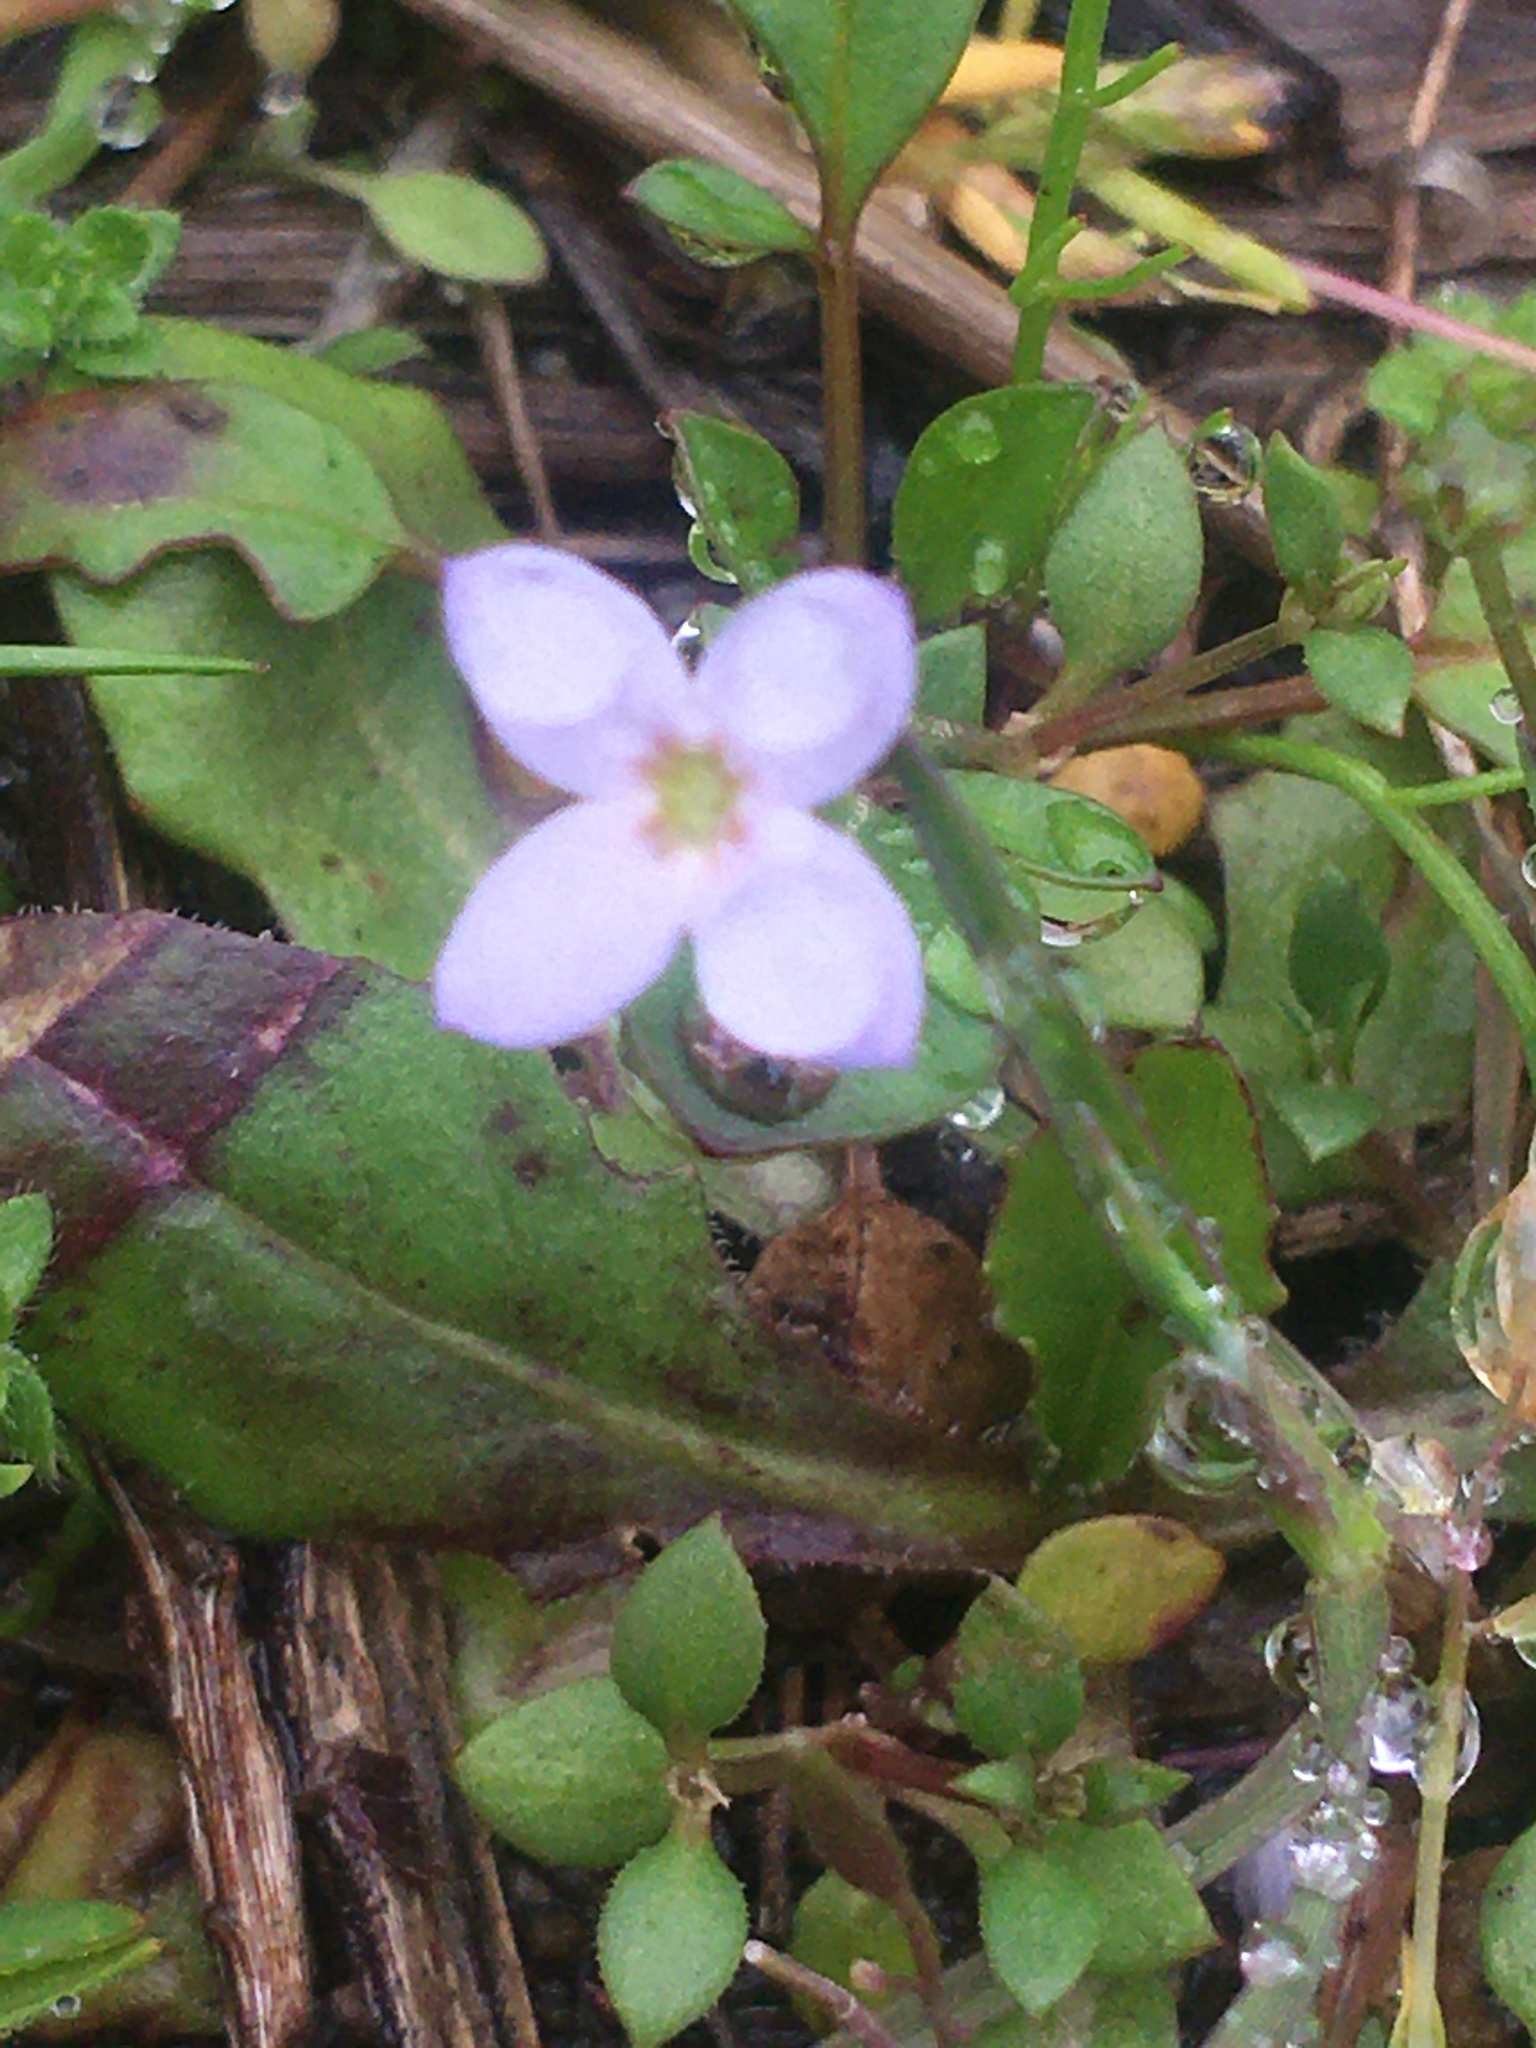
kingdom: Plantae
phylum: Tracheophyta
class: Magnoliopsida
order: Gentianales
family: Rubiaceae
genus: Houstonia
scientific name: Houstonia pusilla
